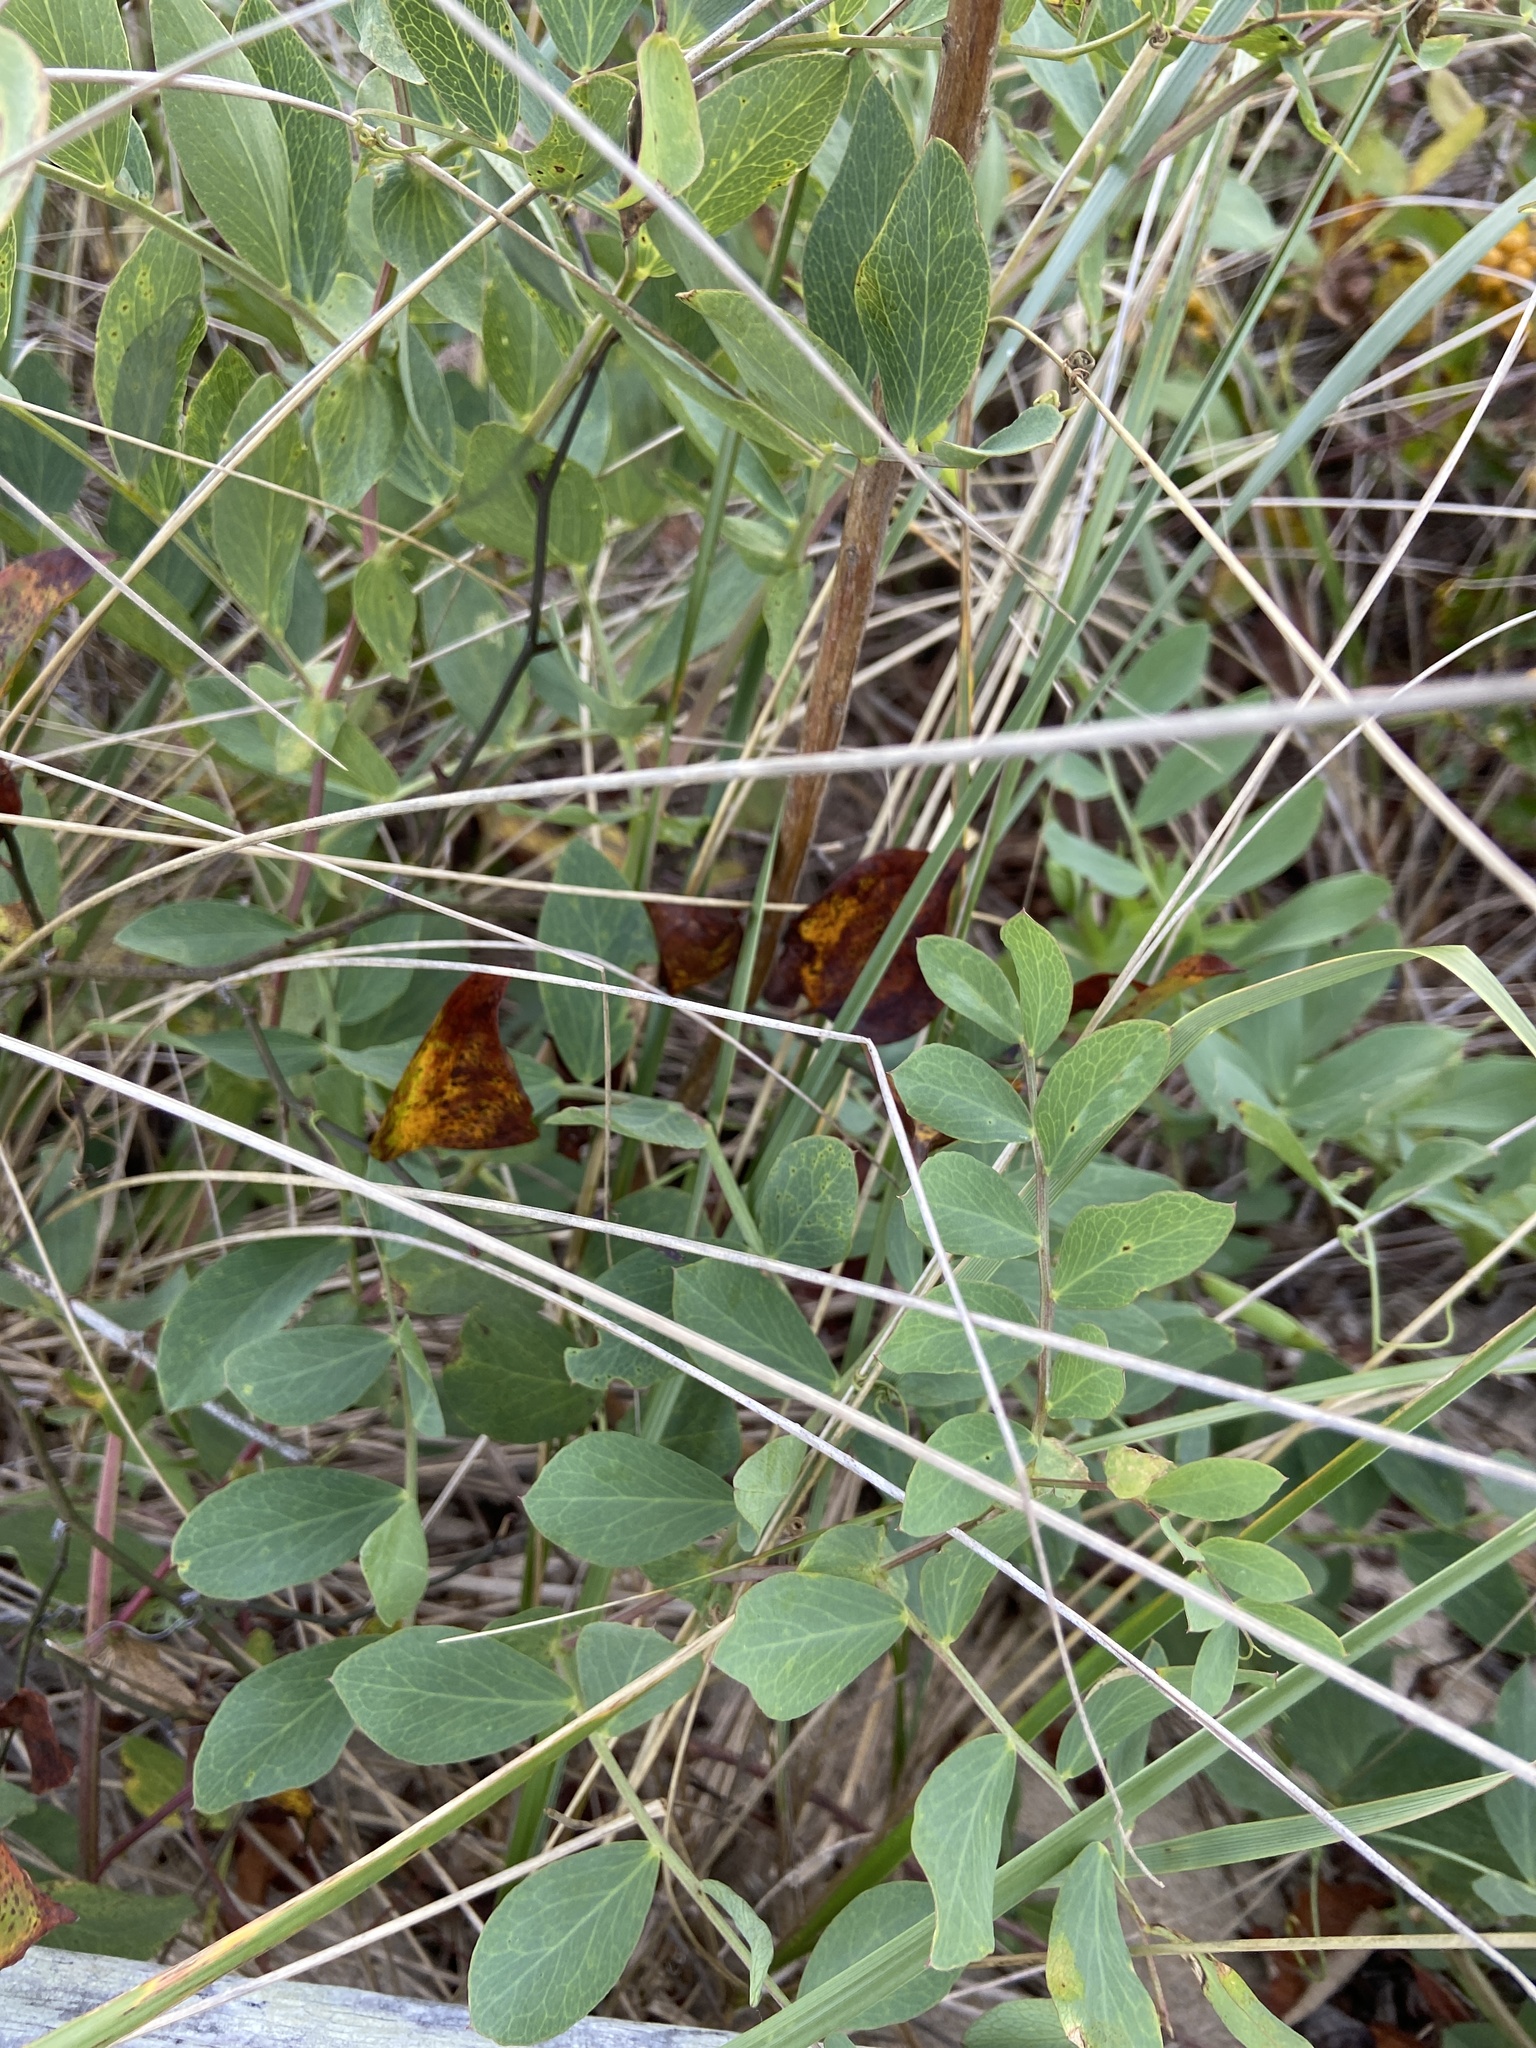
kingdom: Plantae
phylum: Tracheophyta
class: Magnoliopsida
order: Fabales
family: Fabaceae
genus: Lathyrus
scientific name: Lathyrus japonicus
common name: Sea pea
